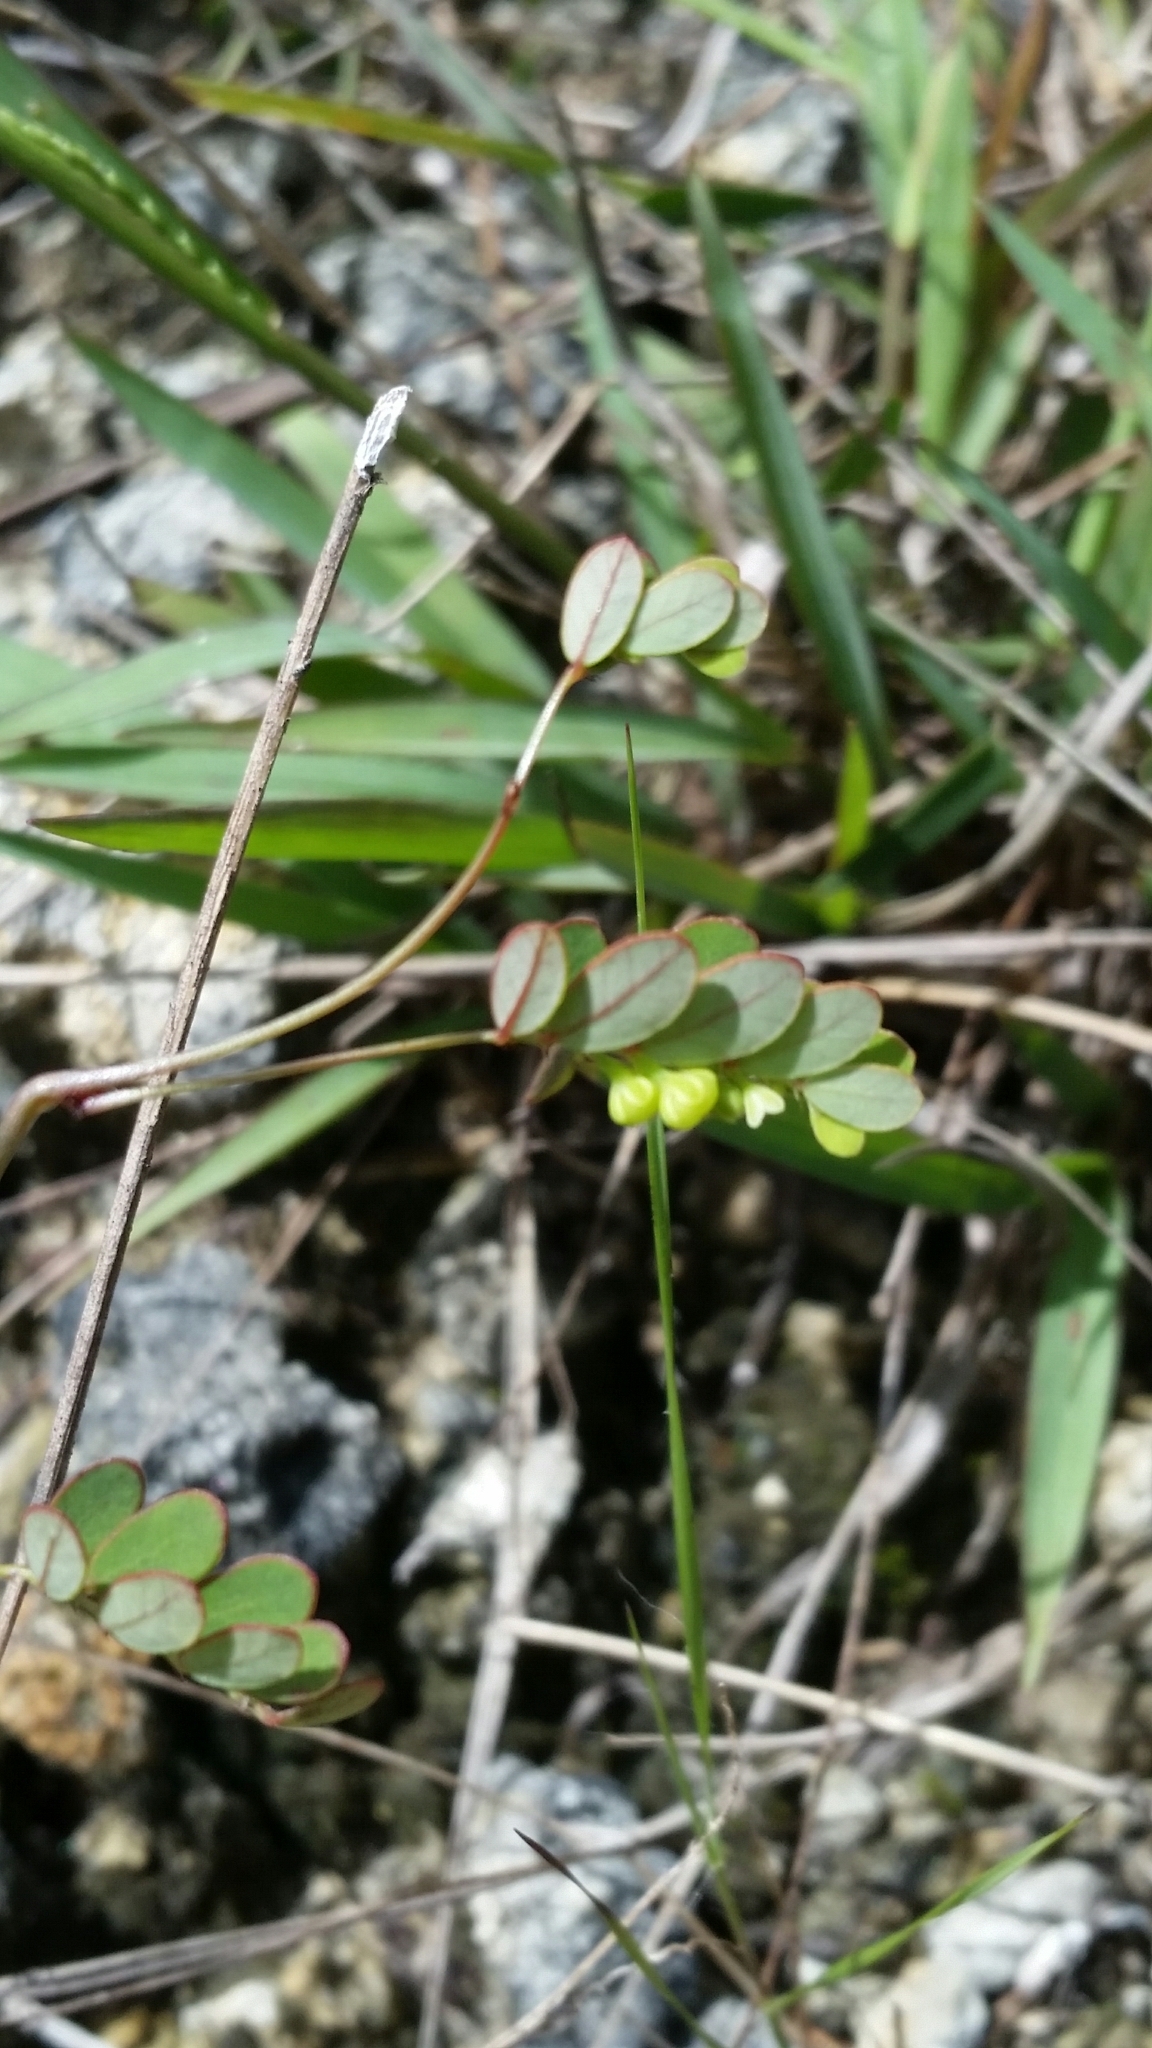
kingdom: Plantae
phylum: Tracheophyta
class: Magnoliopsida
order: Malpighiales
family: Phyllanthaceae
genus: Phyllanthus
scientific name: Phyllanthus pentaphyllus
